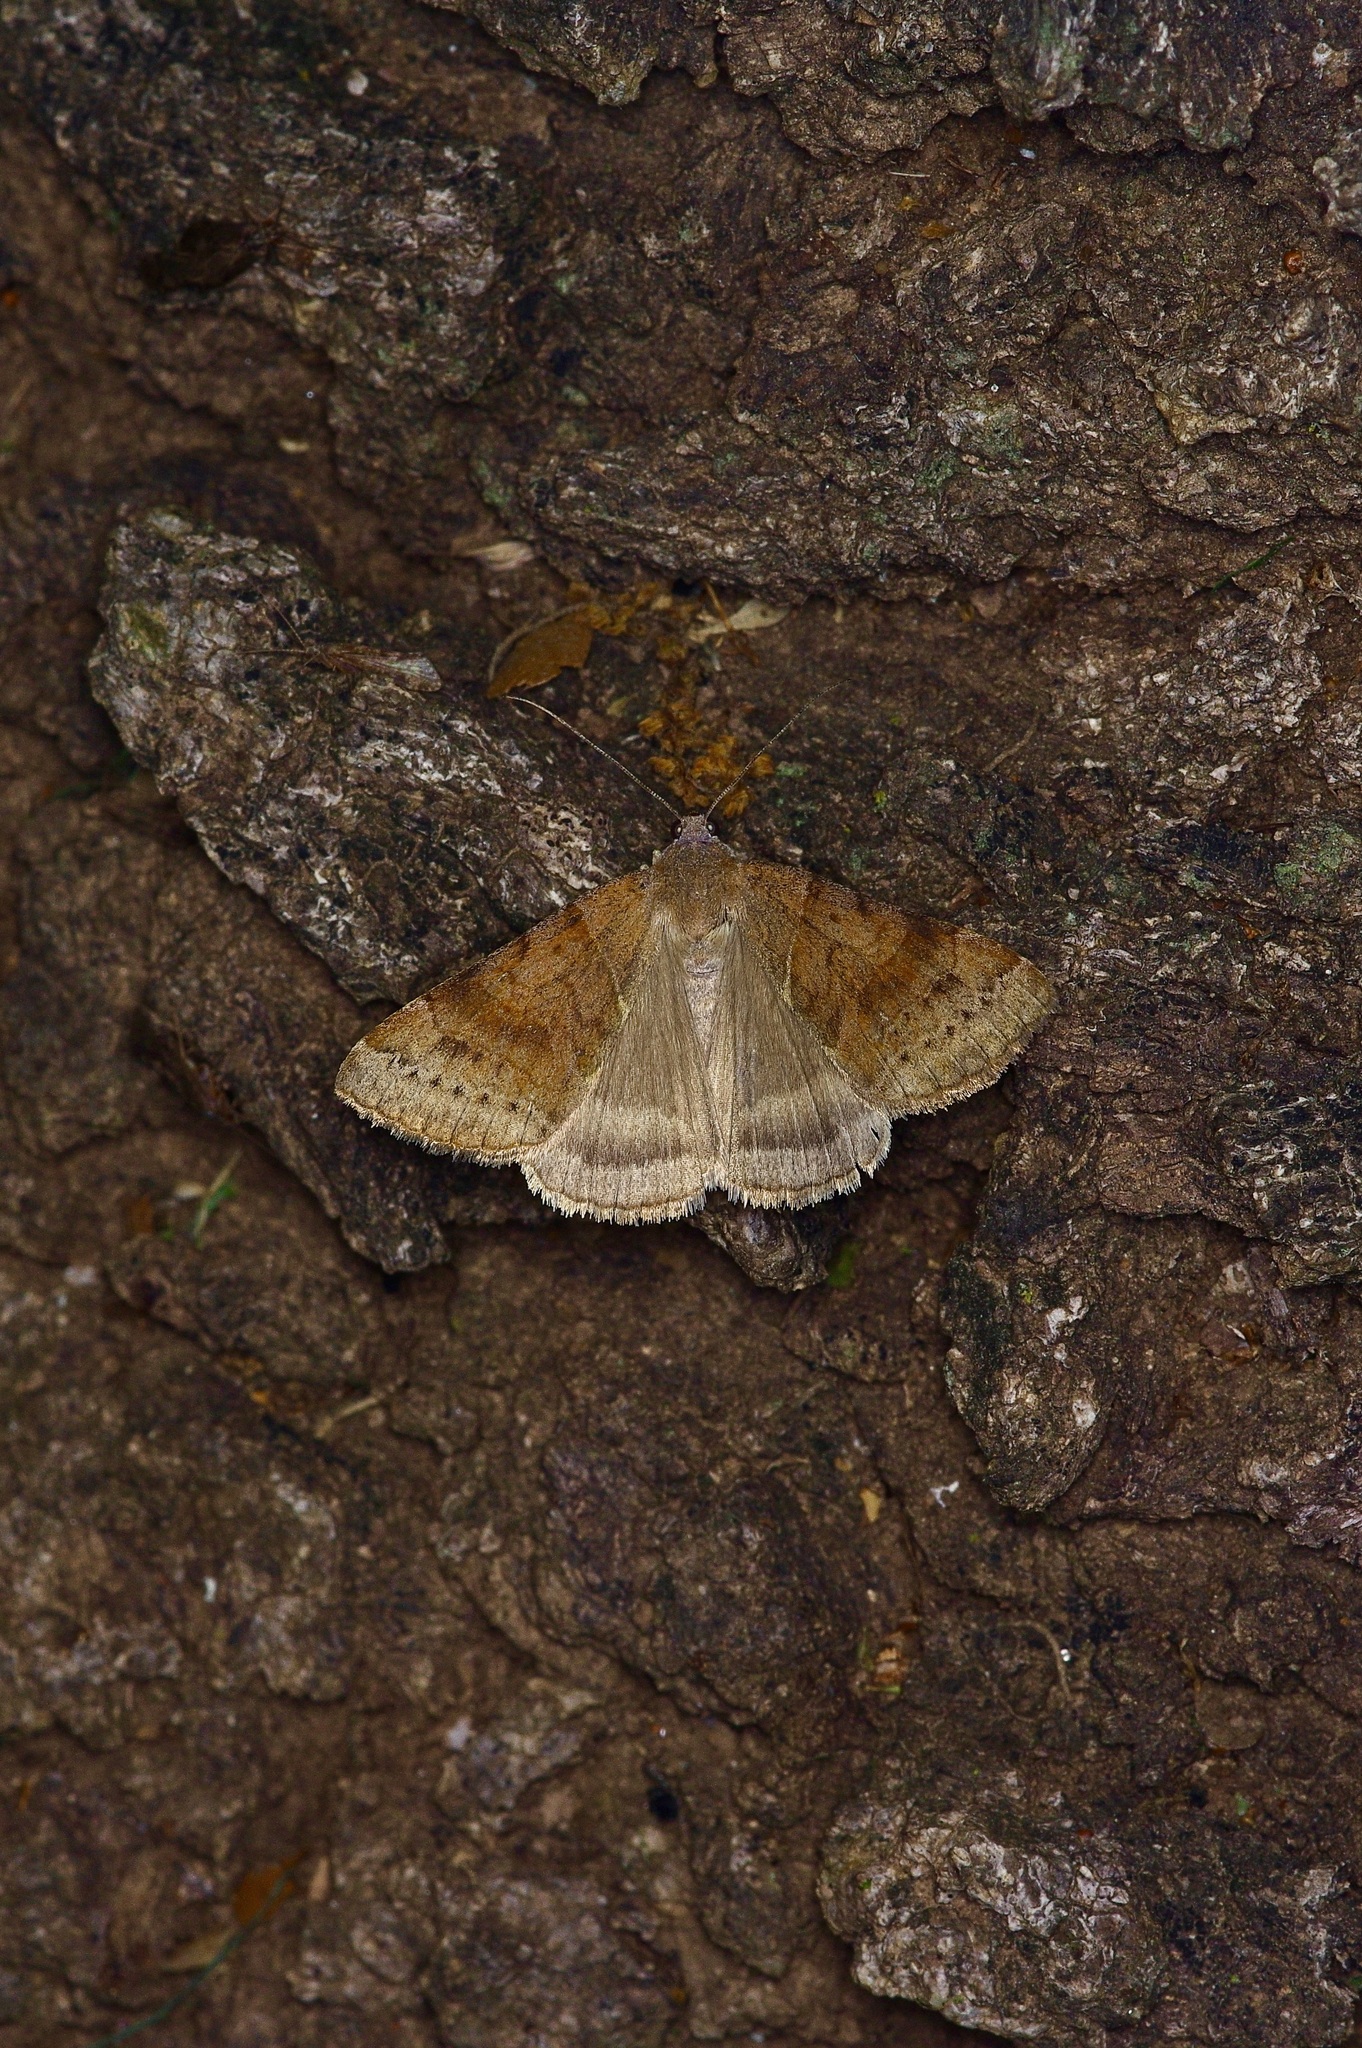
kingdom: Animalia
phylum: Arthropoda
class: Insecta
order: Lepidoptera
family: Erebidae
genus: Caenurgina
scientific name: Caenurgina erechtea
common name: Forage looper moth
